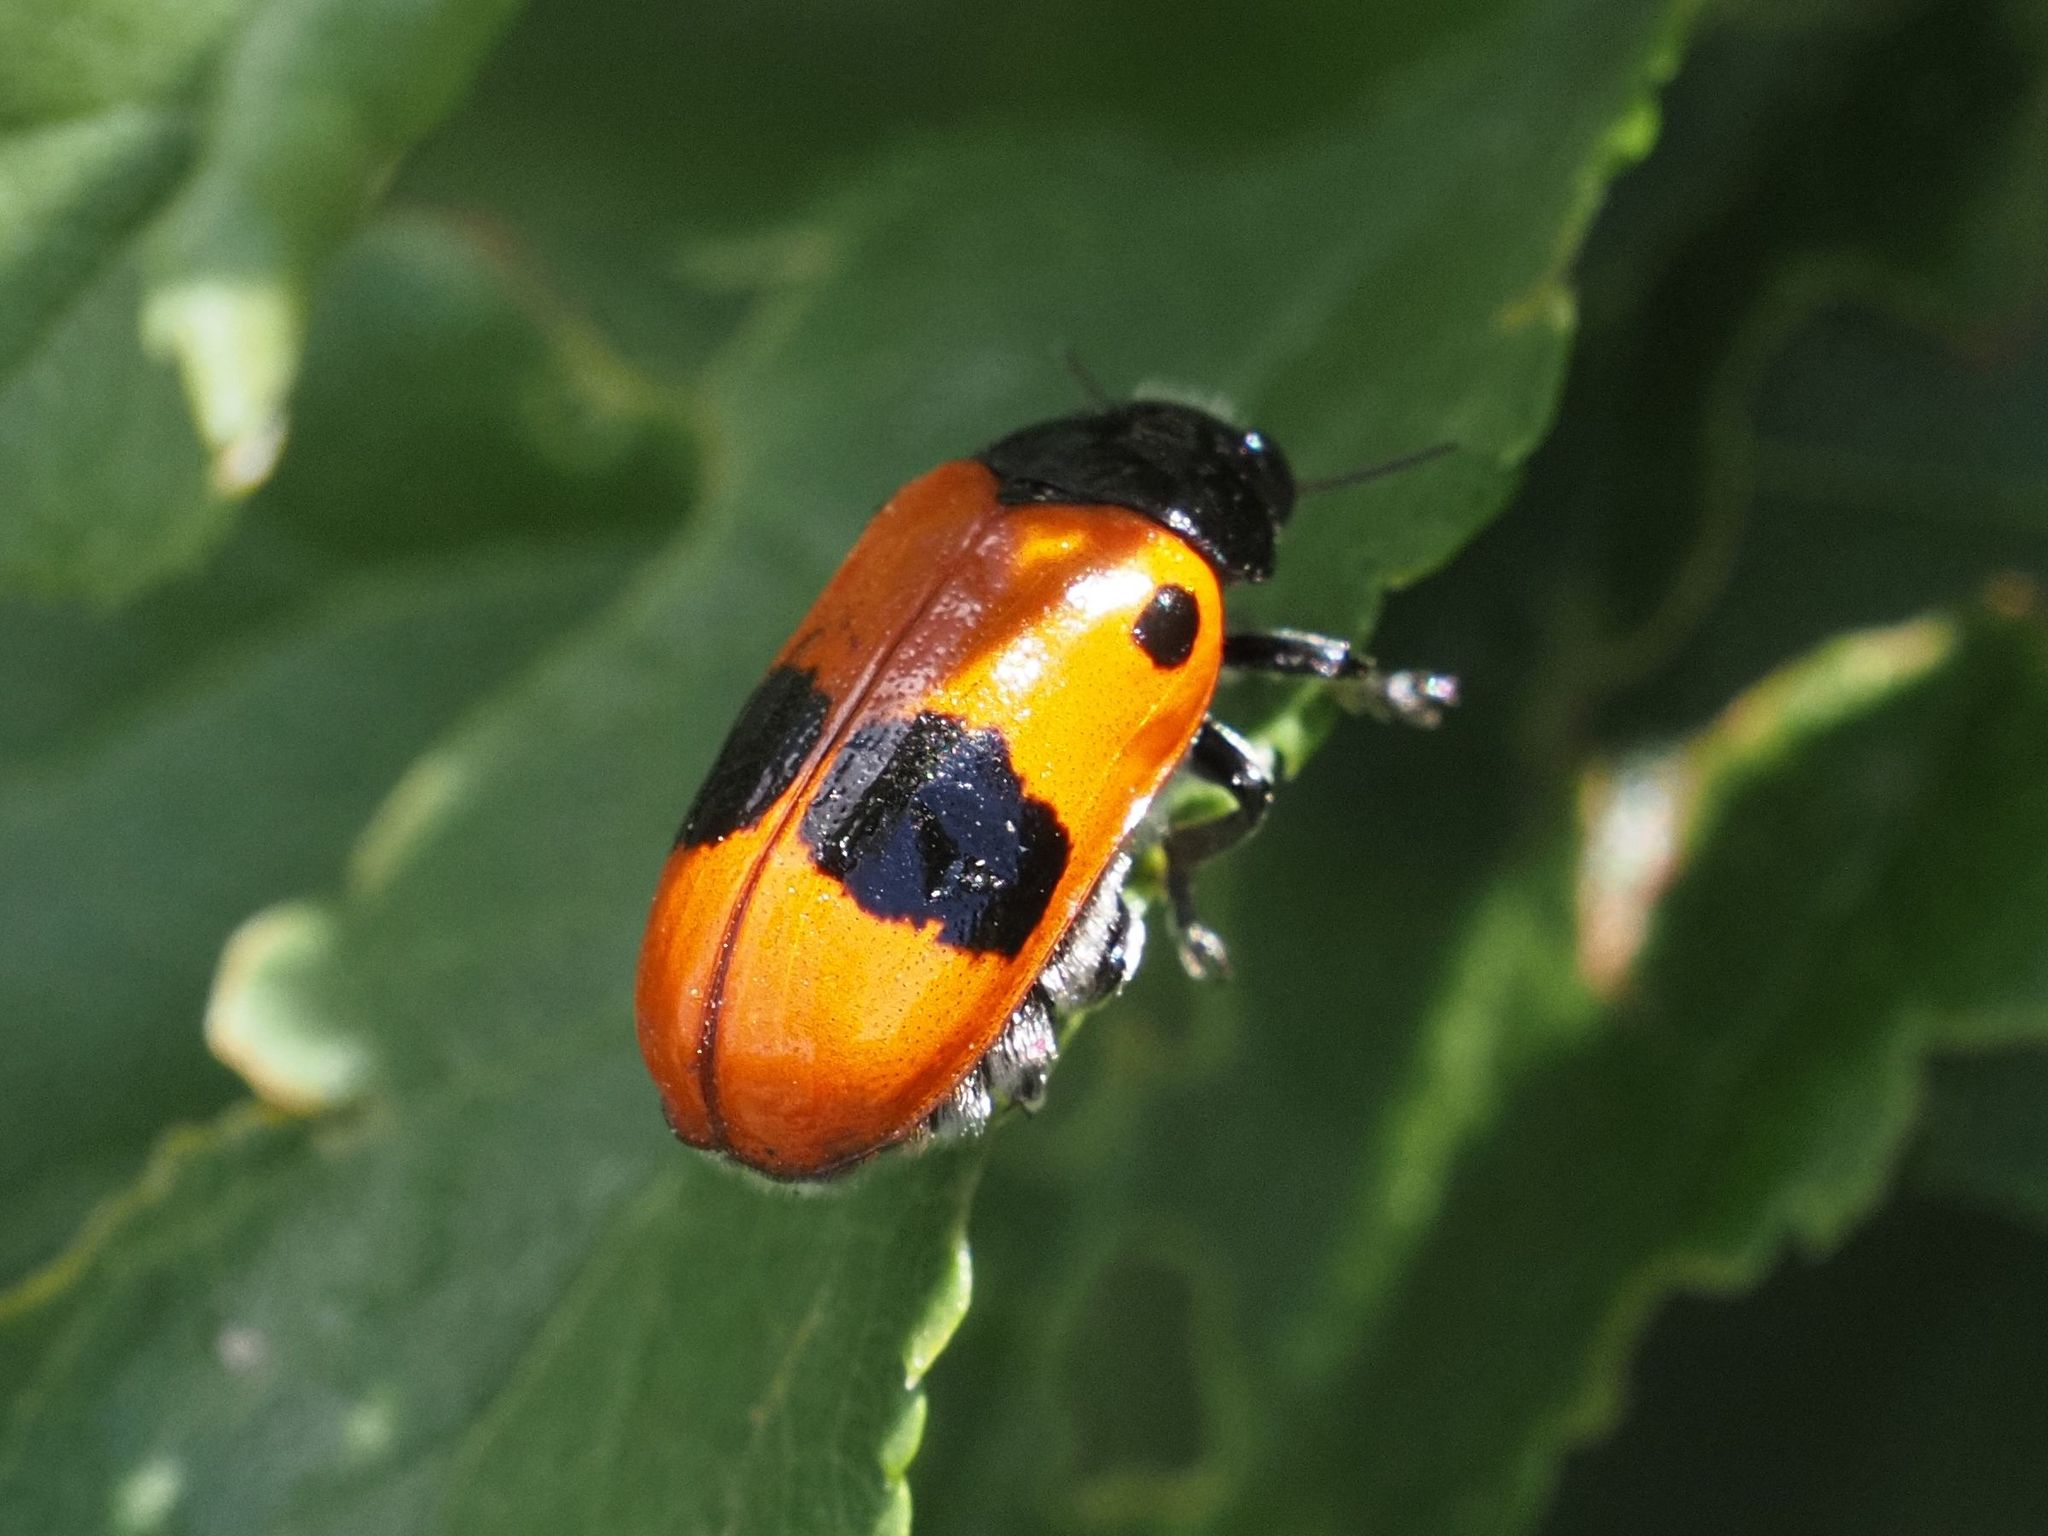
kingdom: Animalia
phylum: Arthropoda
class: Insecta
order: Coleoptera
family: Chrysomelidae
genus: Clytra
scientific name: Clytra laeviuscula
